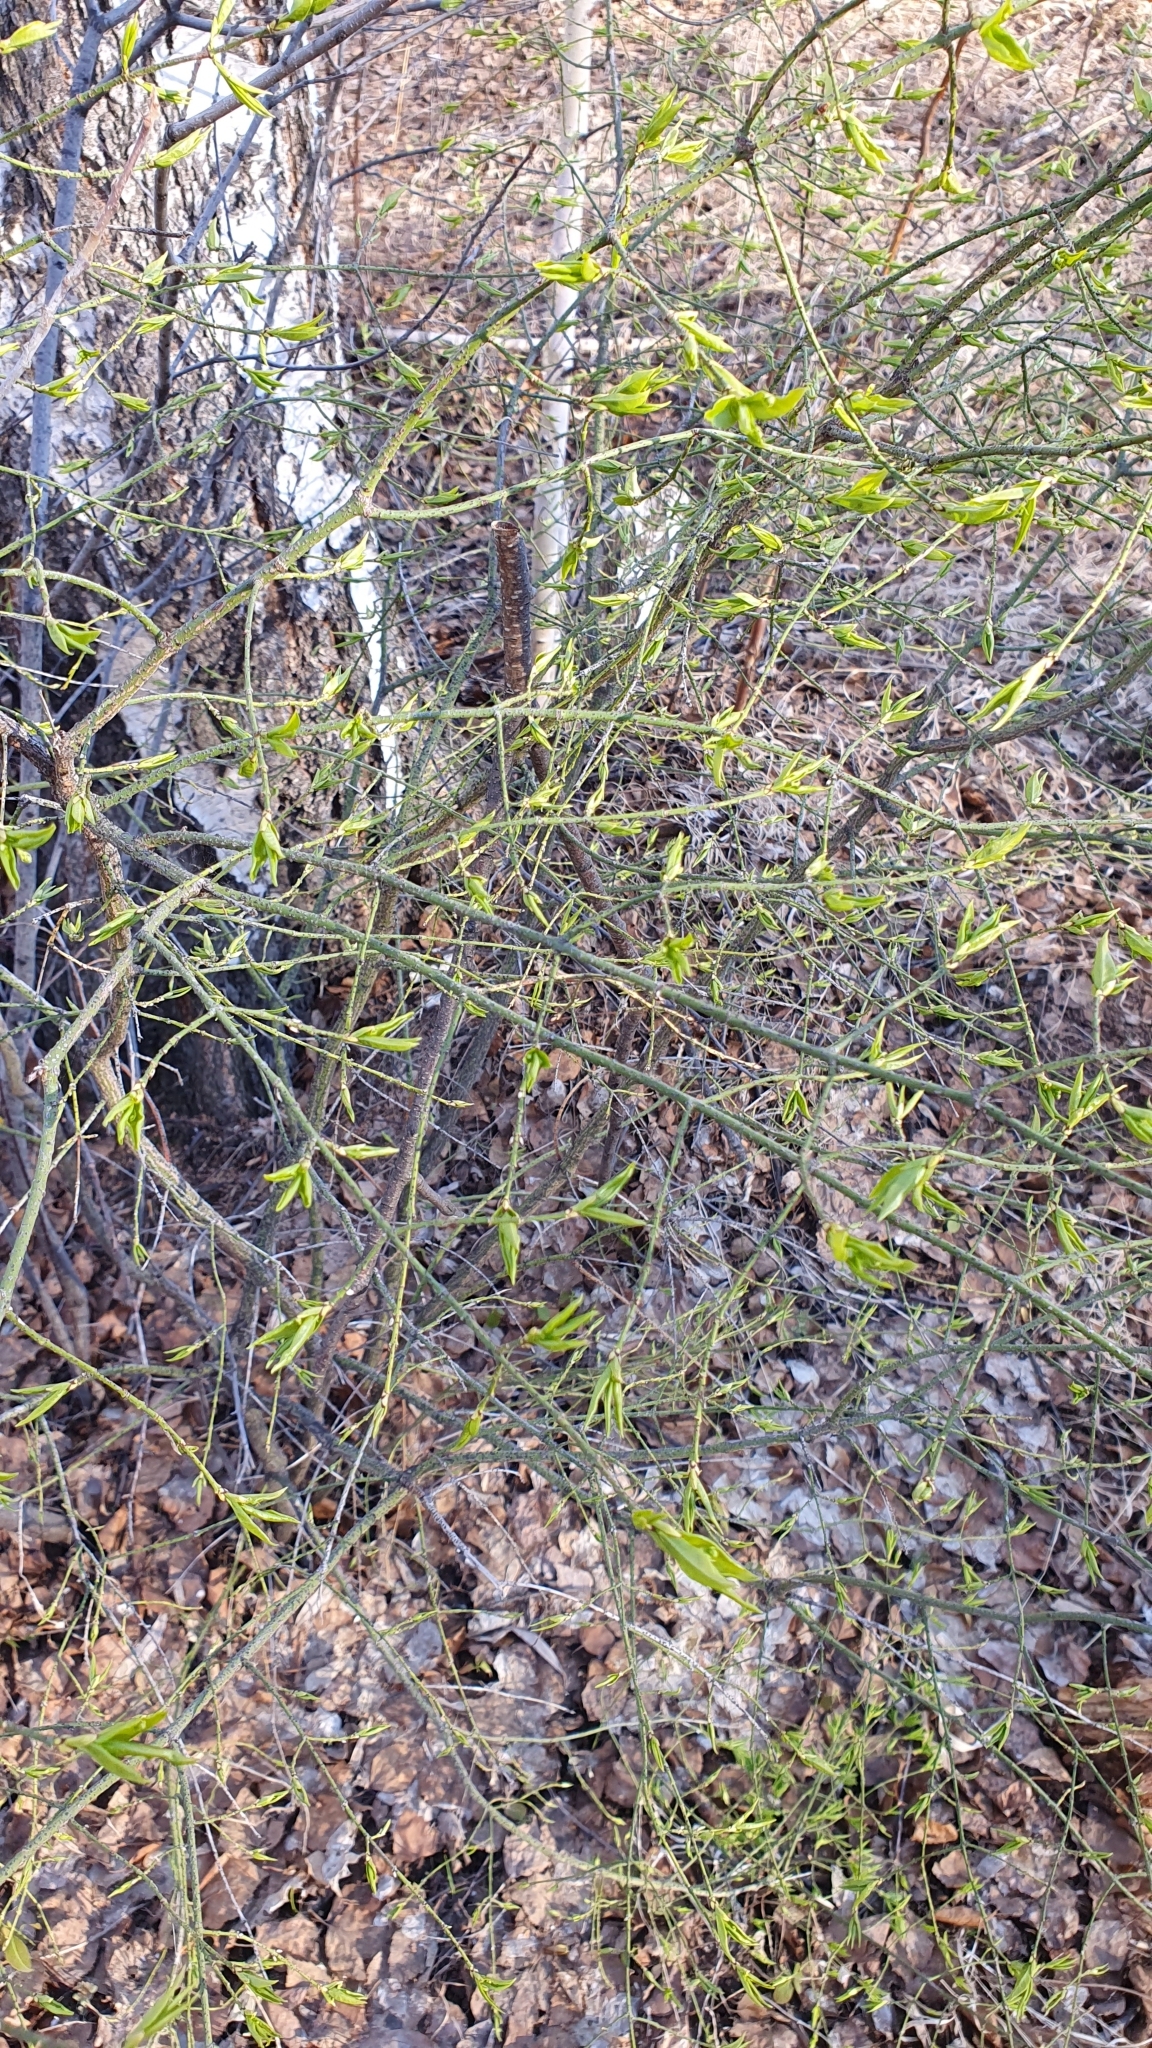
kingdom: Plantae
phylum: Tracheophyta
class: Magnoliopsida
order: Celastrales
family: Celastraceae
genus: Euonymus
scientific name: Euonymus verrucosus
